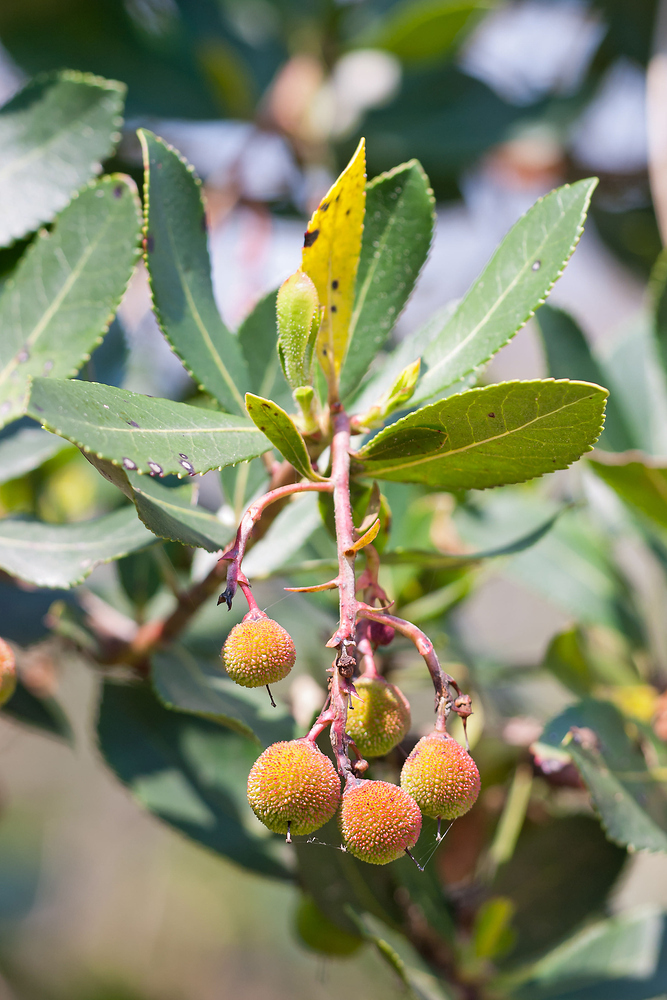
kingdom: Plantae
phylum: Tracheophyta
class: Magnoliopsida
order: Ericales
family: Ericaceae
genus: Arbutus
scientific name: Arbutus unedo
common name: Strawberry-tree
